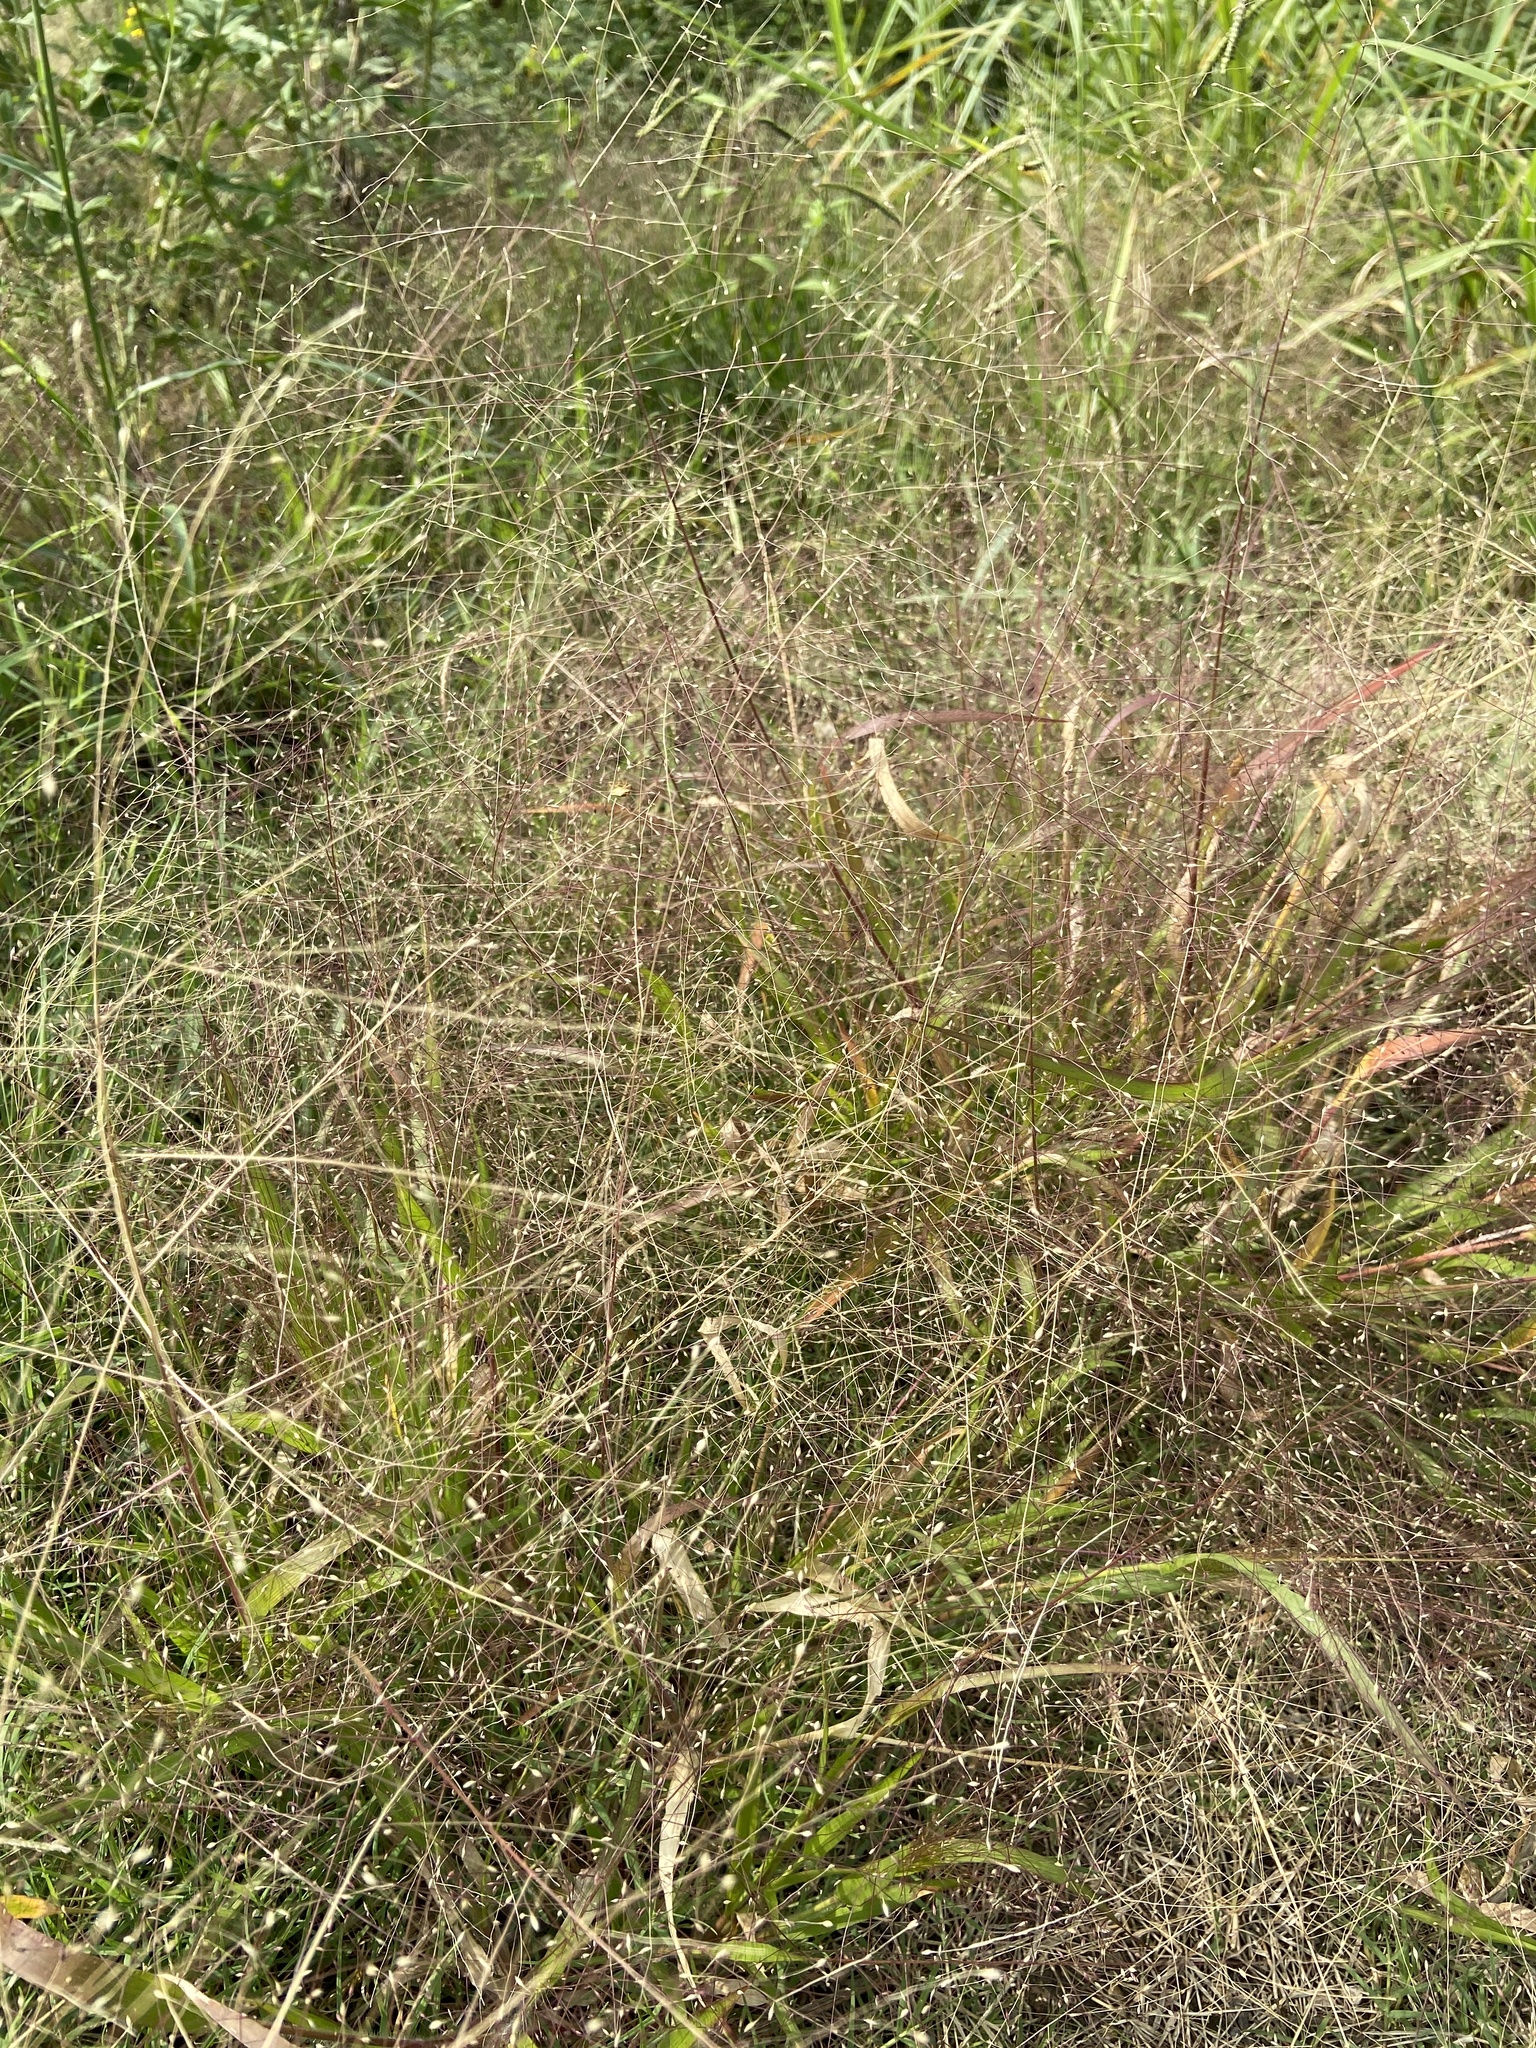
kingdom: Plantae
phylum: Tracheophyta
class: Liliopsida
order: Poales
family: Poaceae
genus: Panicum
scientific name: Panicum capillare
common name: Witch-grass
